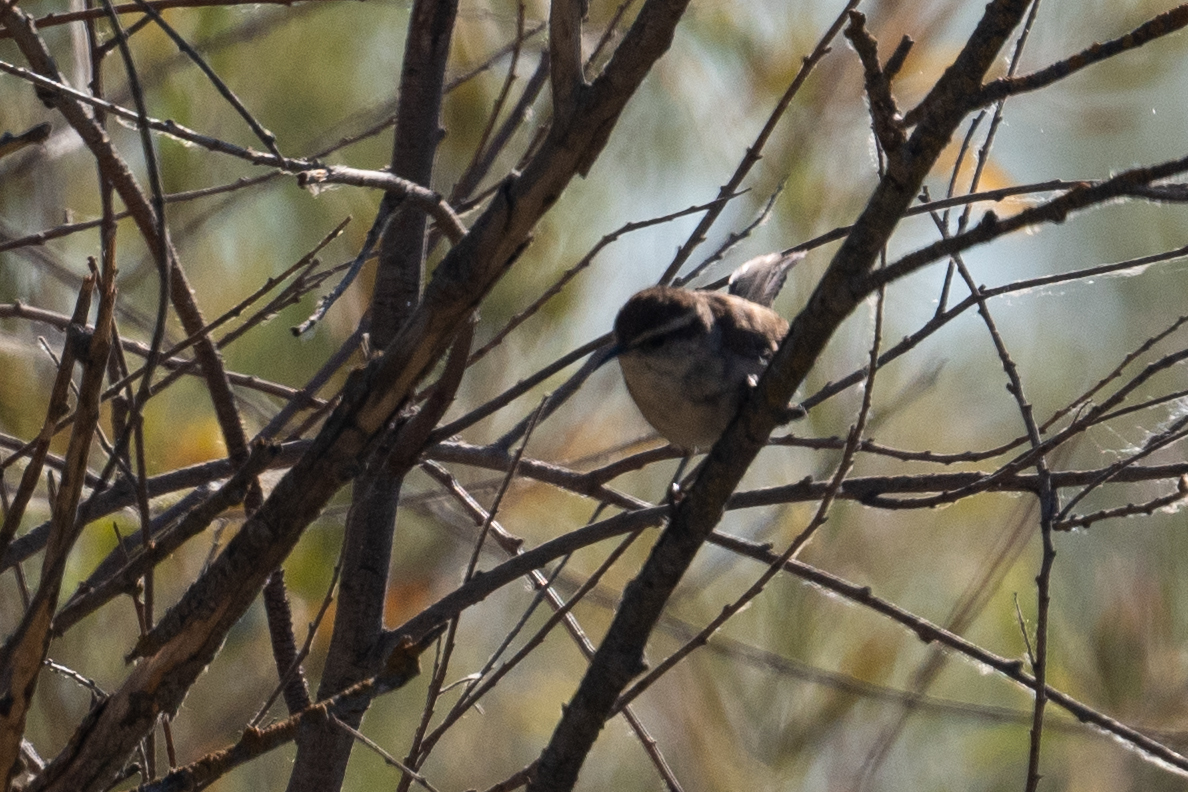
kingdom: Animalia
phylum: Chordata
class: Aves
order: Passeriformes
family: Troglodytidae
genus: Thryomanes
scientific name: Thryomanes bewickii
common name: Bewick's wren
